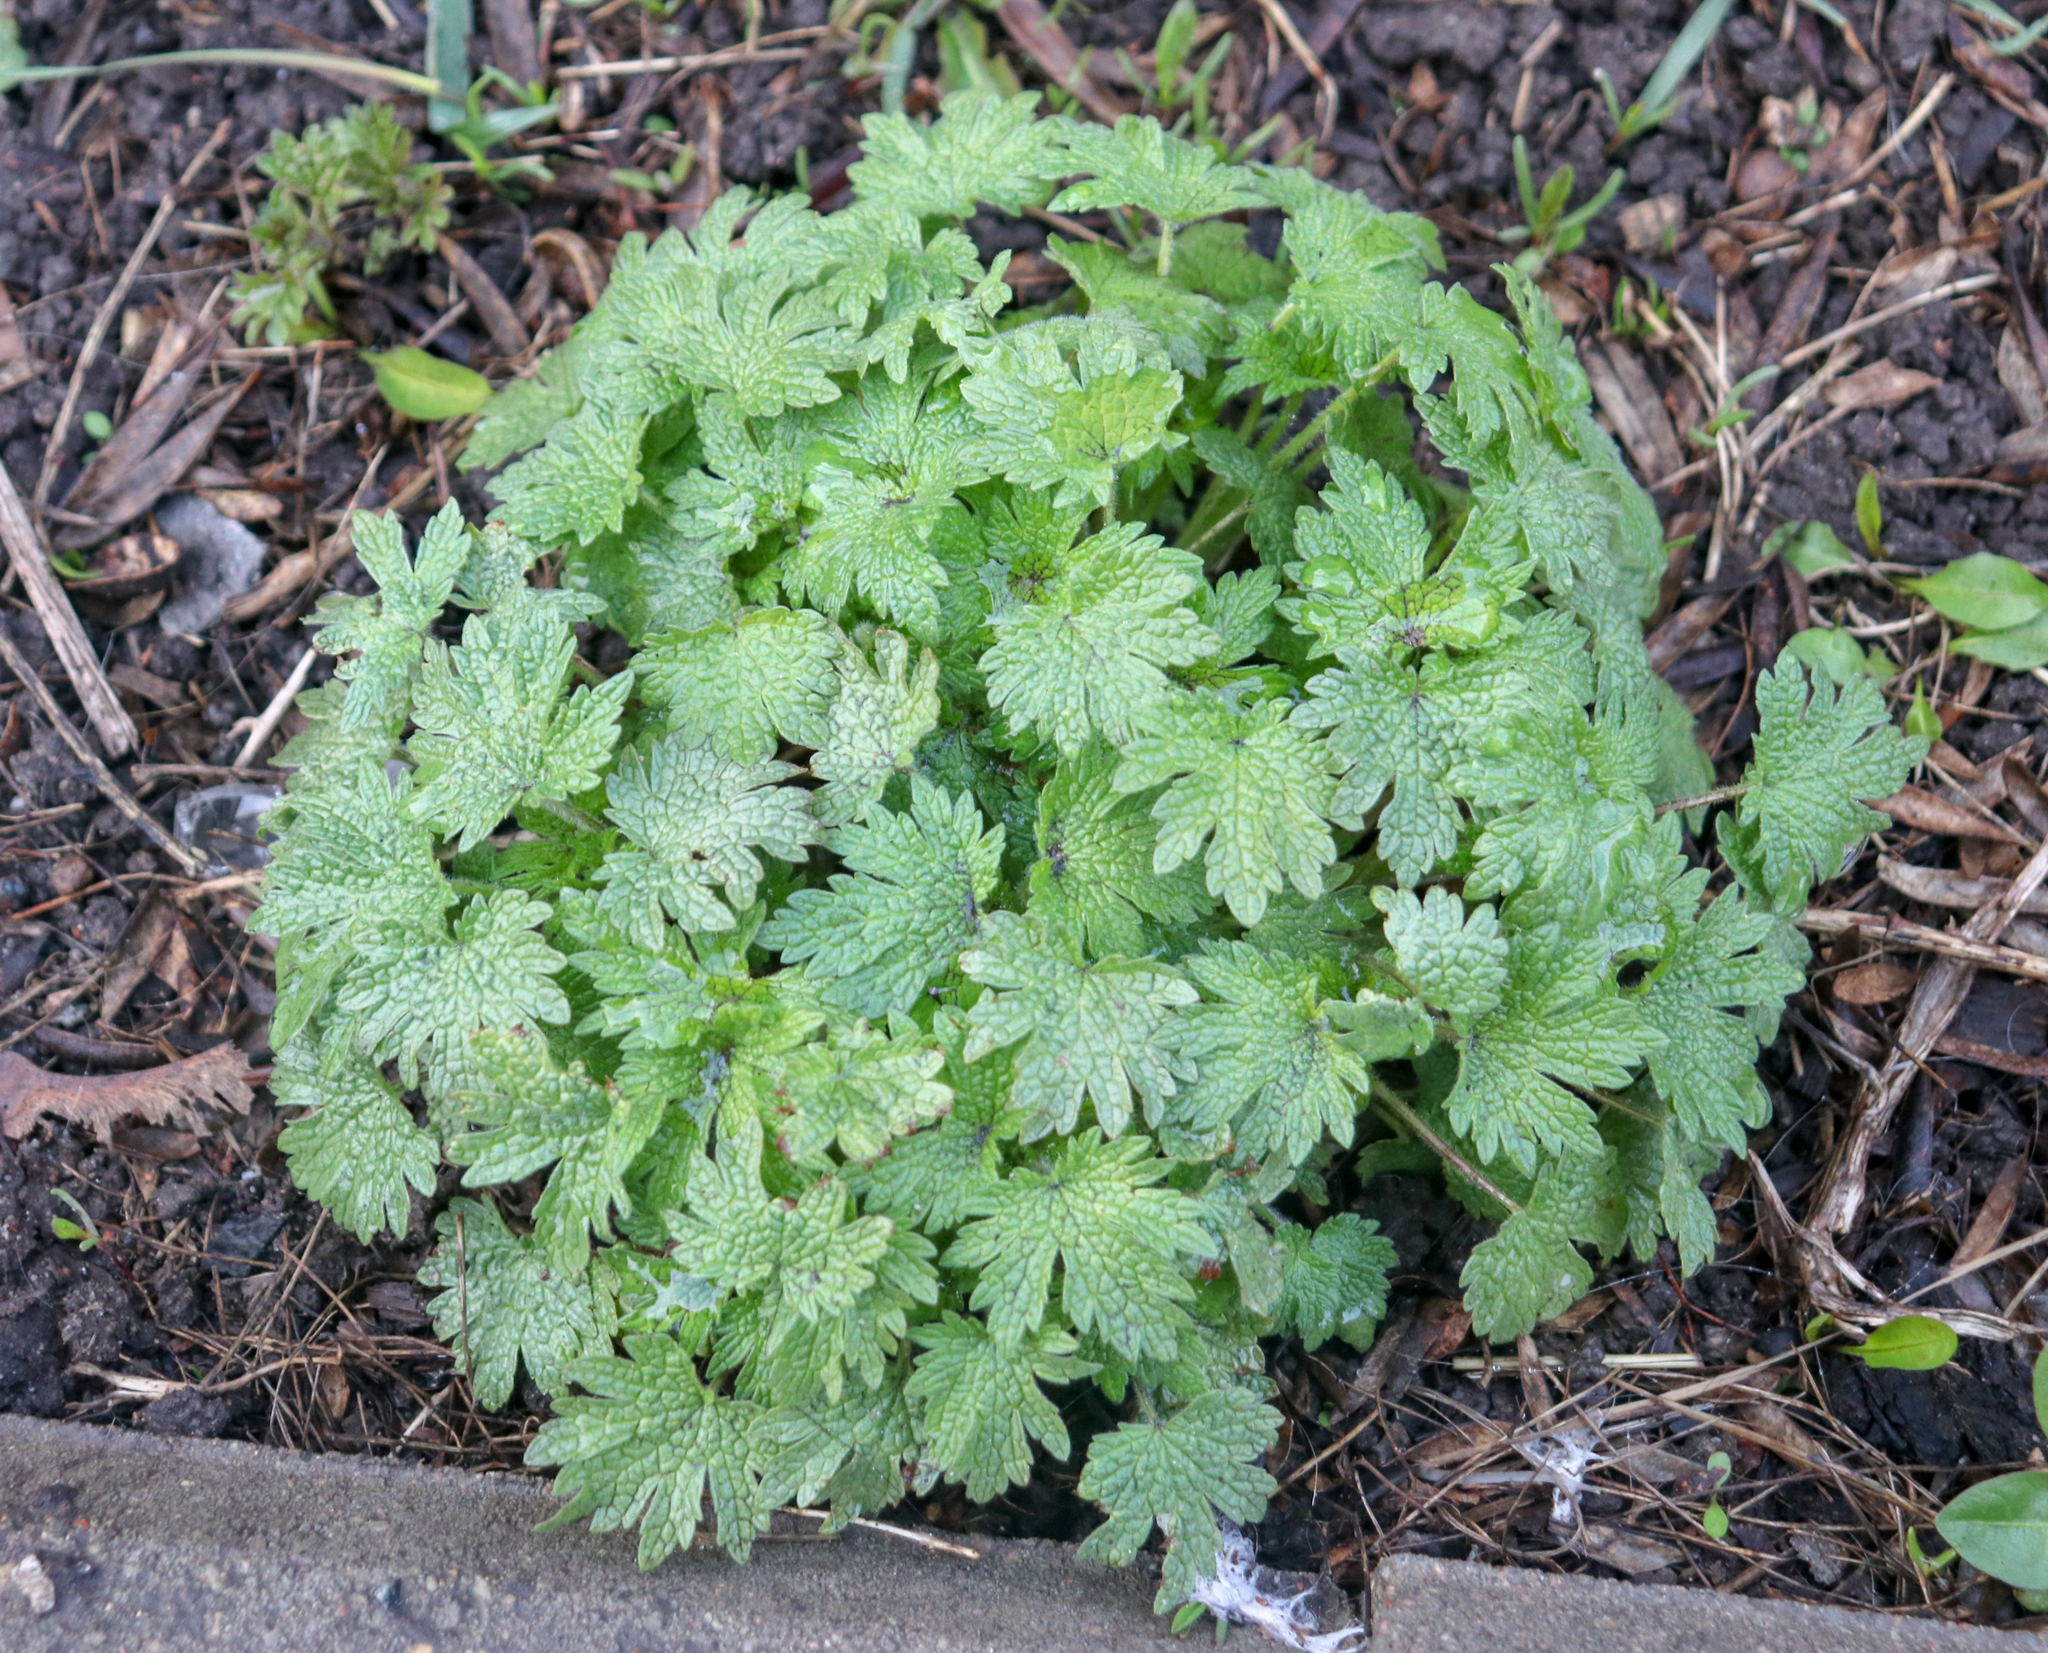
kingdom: Plantae
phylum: Tracheophyta
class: Magnoliopsida
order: Lamiales
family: Lamiaceae
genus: Leonurus
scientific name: Leonurus quinquelobatus
